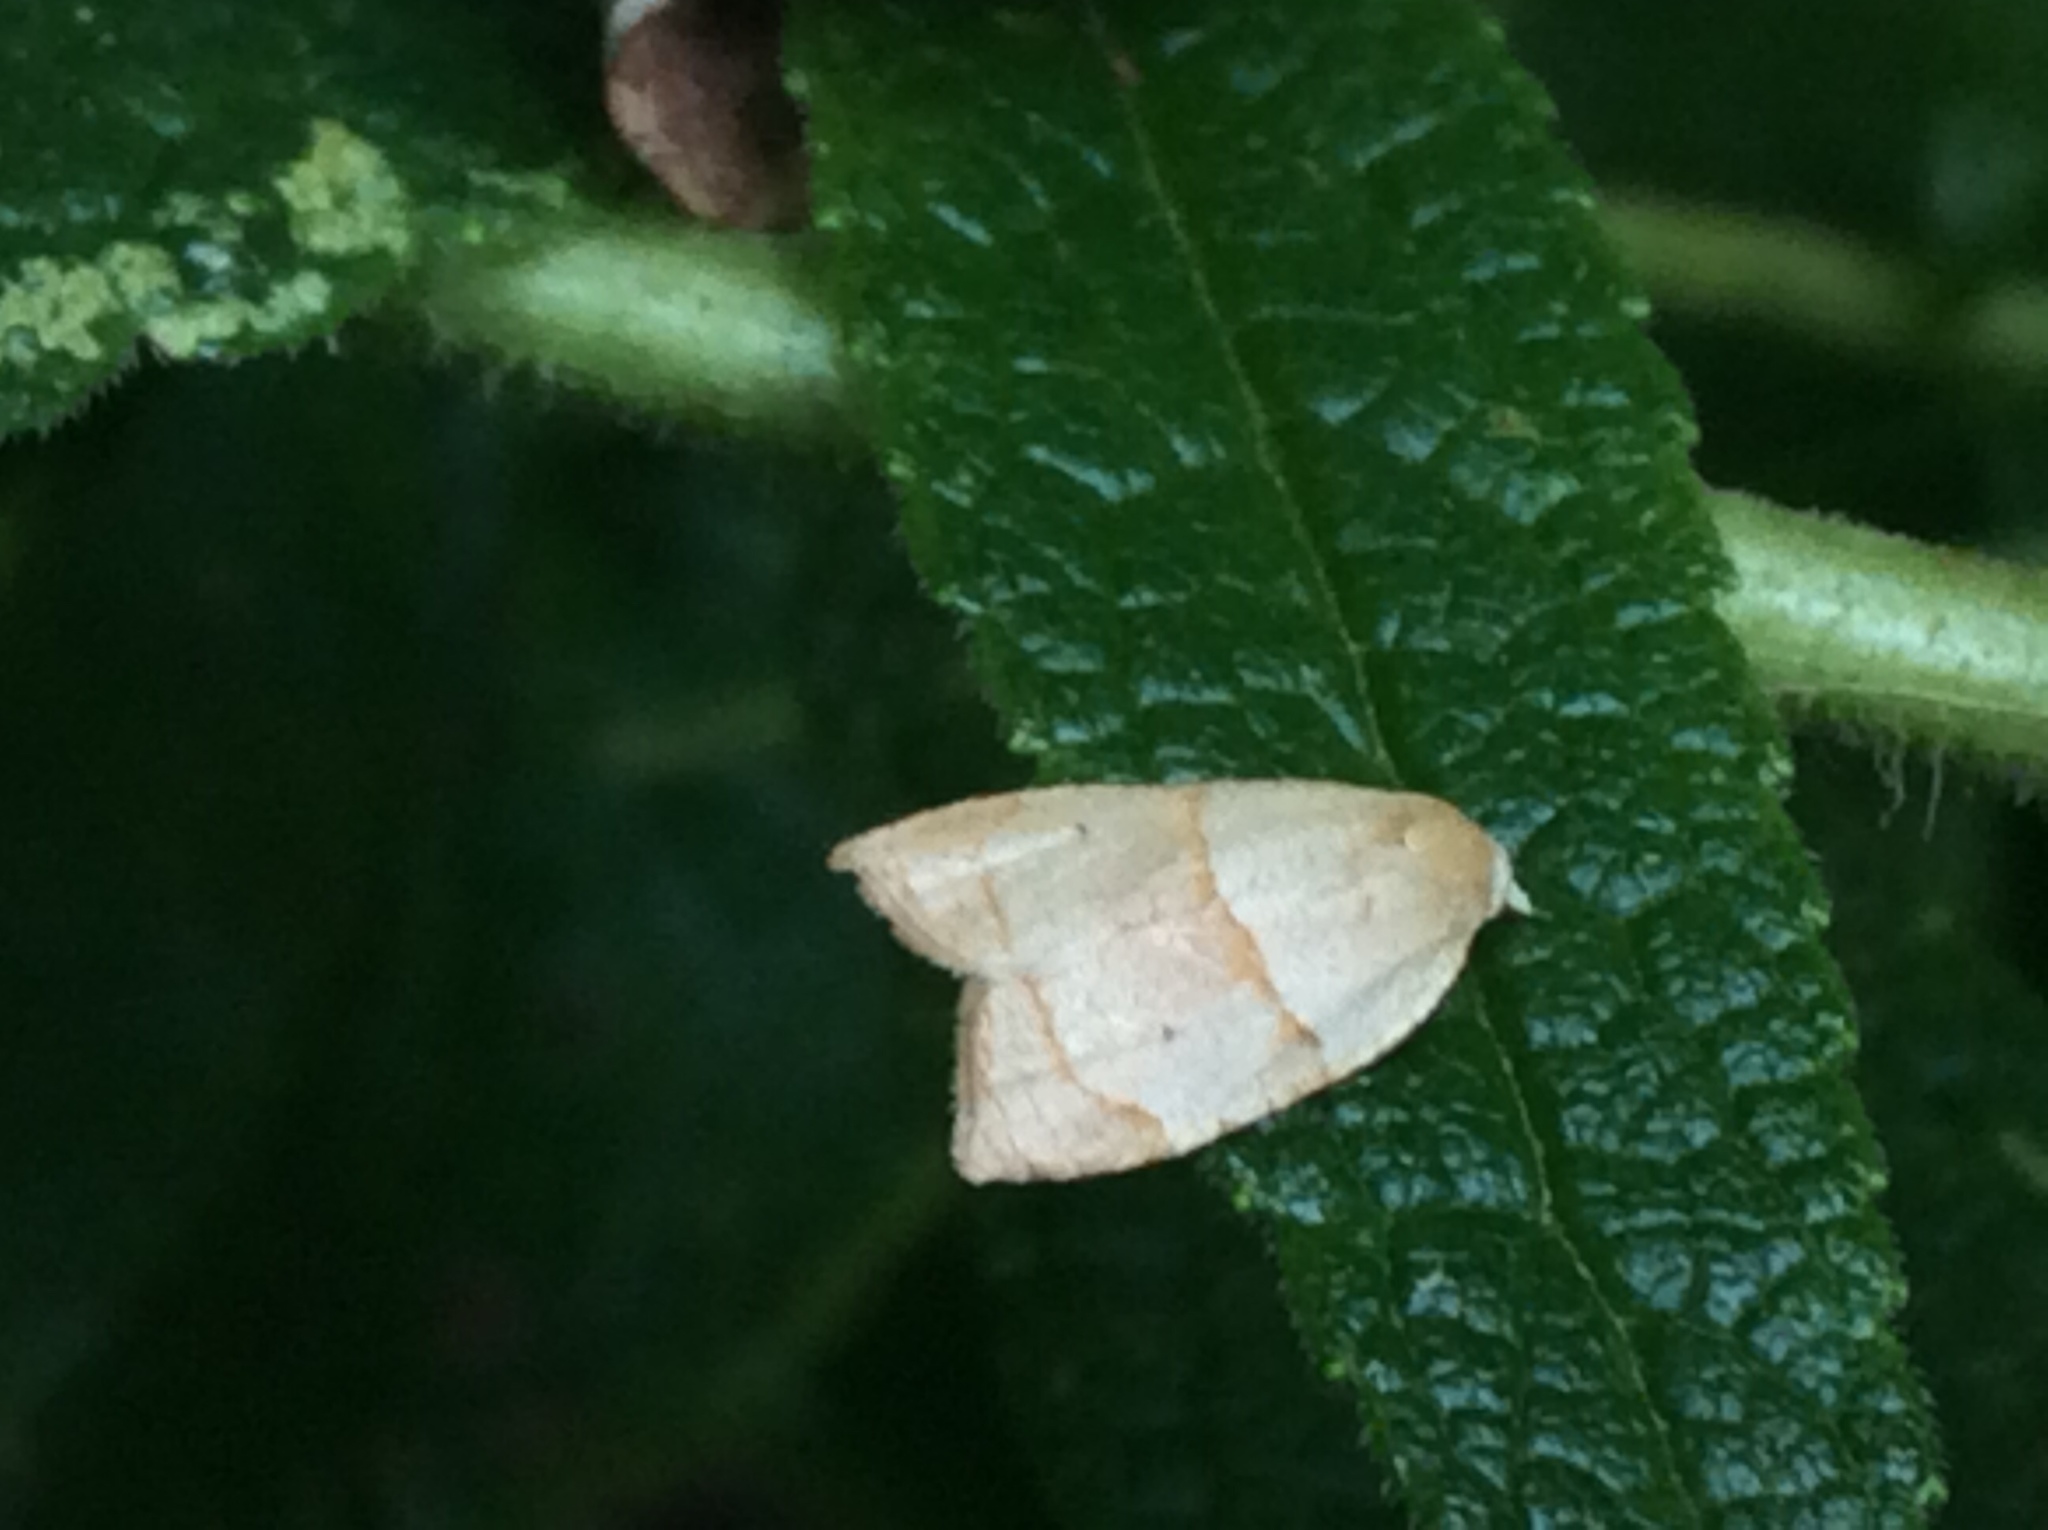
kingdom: Animalia
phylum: Arthropoda
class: Insecta
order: Lepidoptera
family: Tortricidae
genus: Coelostathma
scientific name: Coelostathma discopunctana
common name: Batman moth
